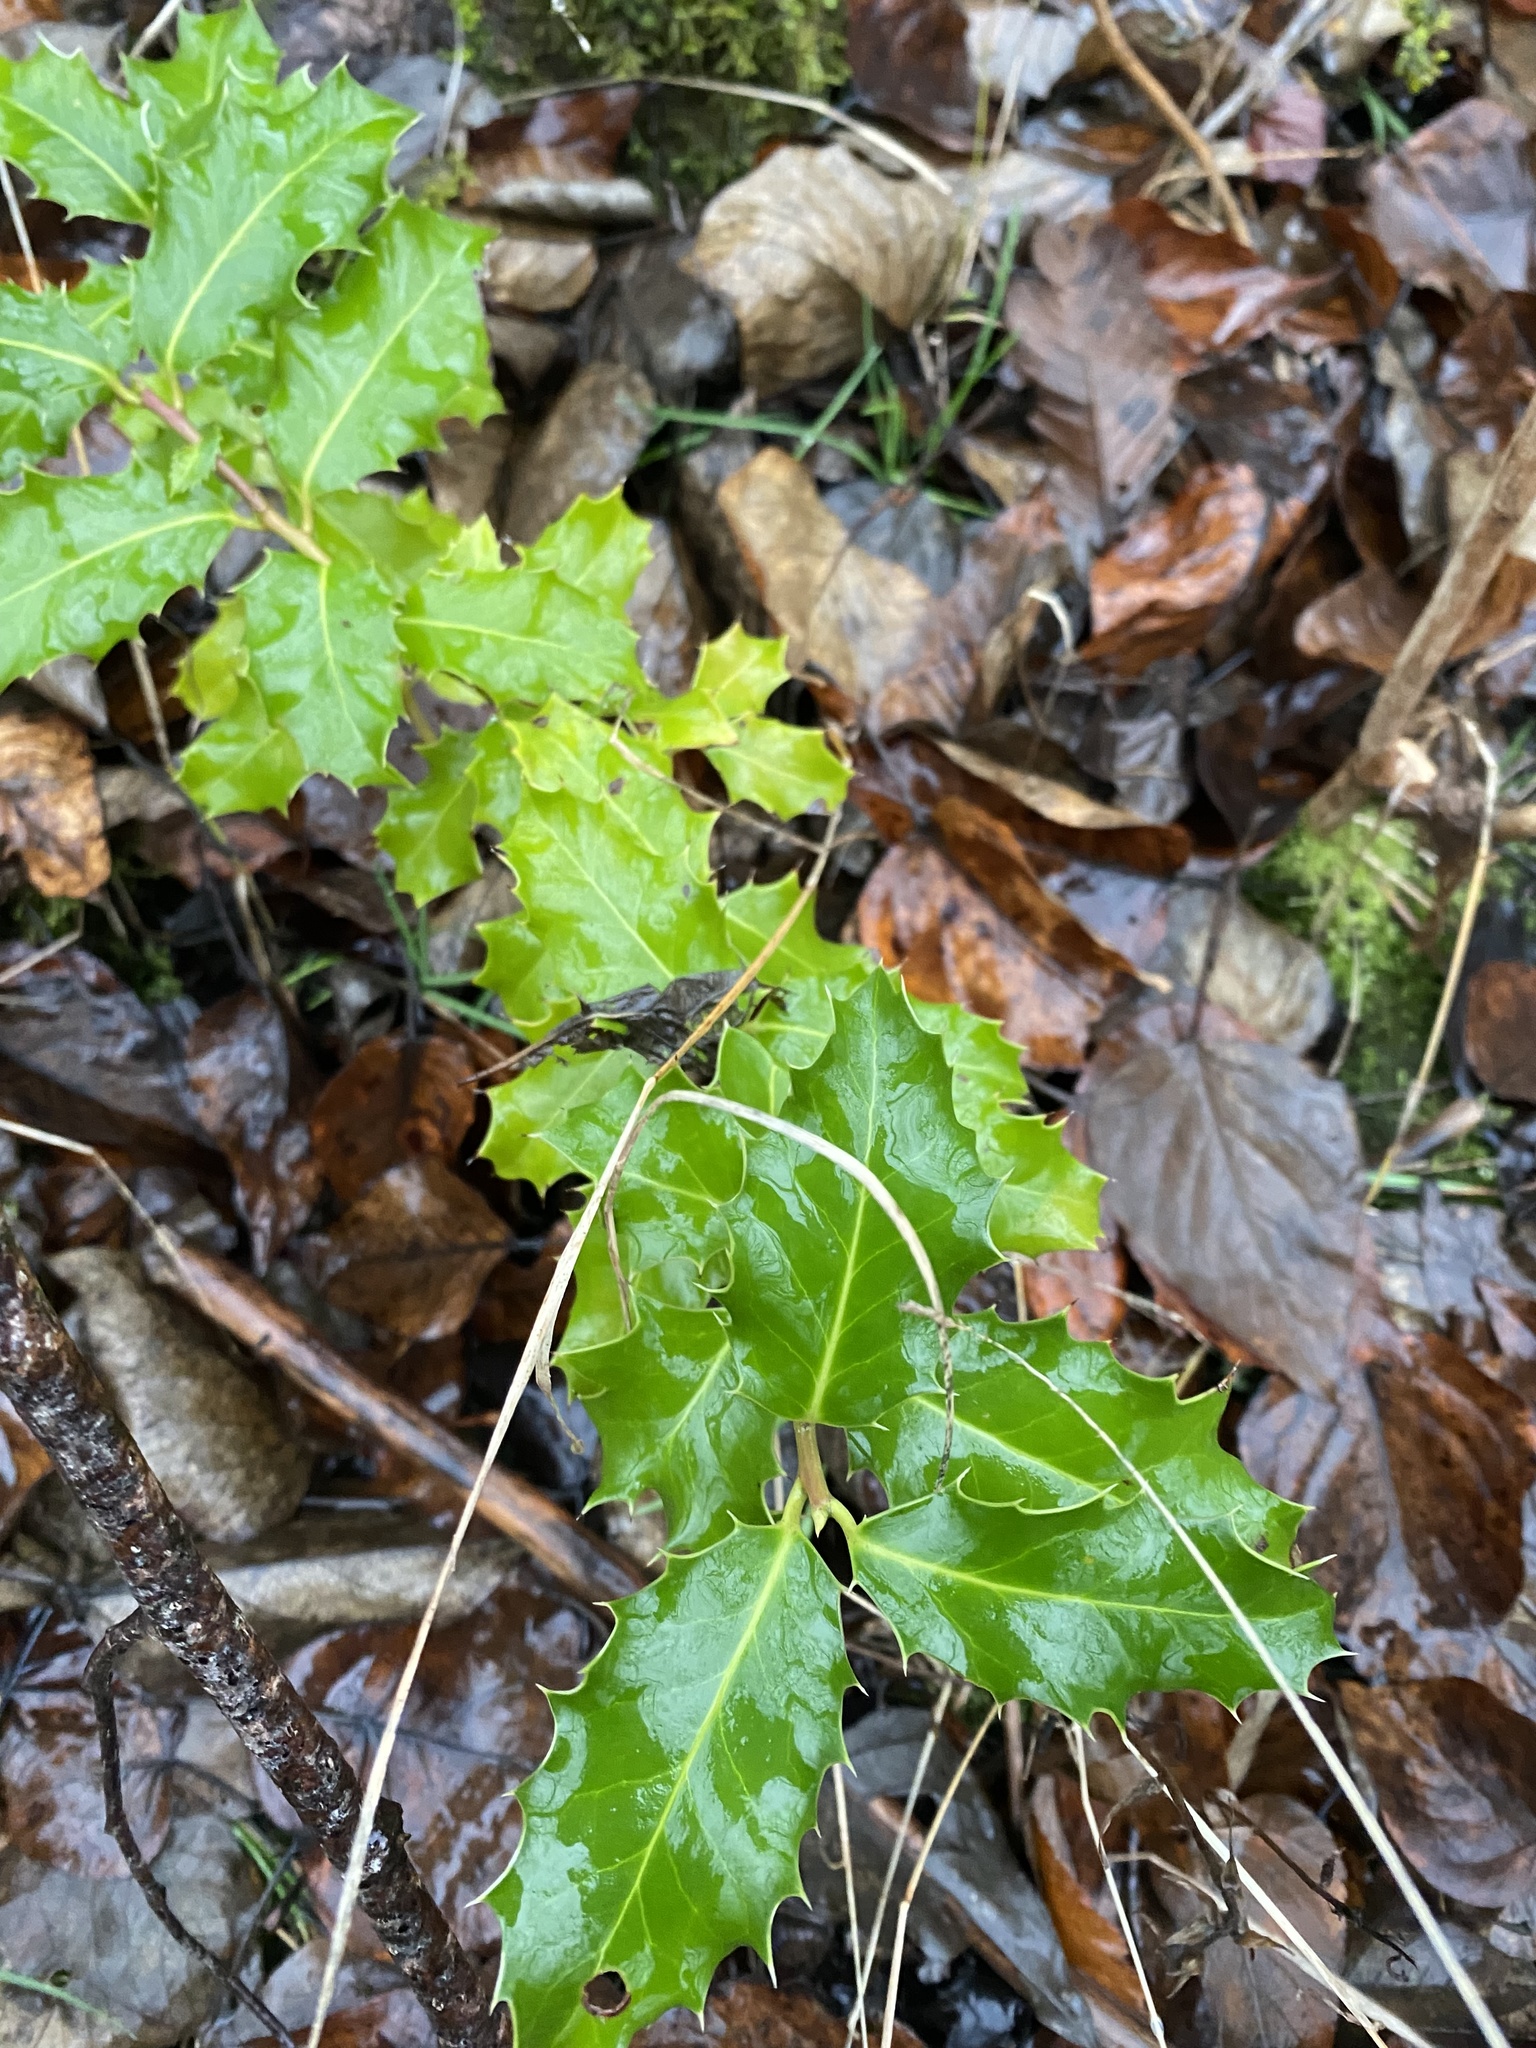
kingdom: Plantae
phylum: Tracheophyta
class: Magnoliopsida
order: Aquifoliales
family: Aquifoliaceae
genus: Ilex
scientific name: Ilex aquifolium
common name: English holly
